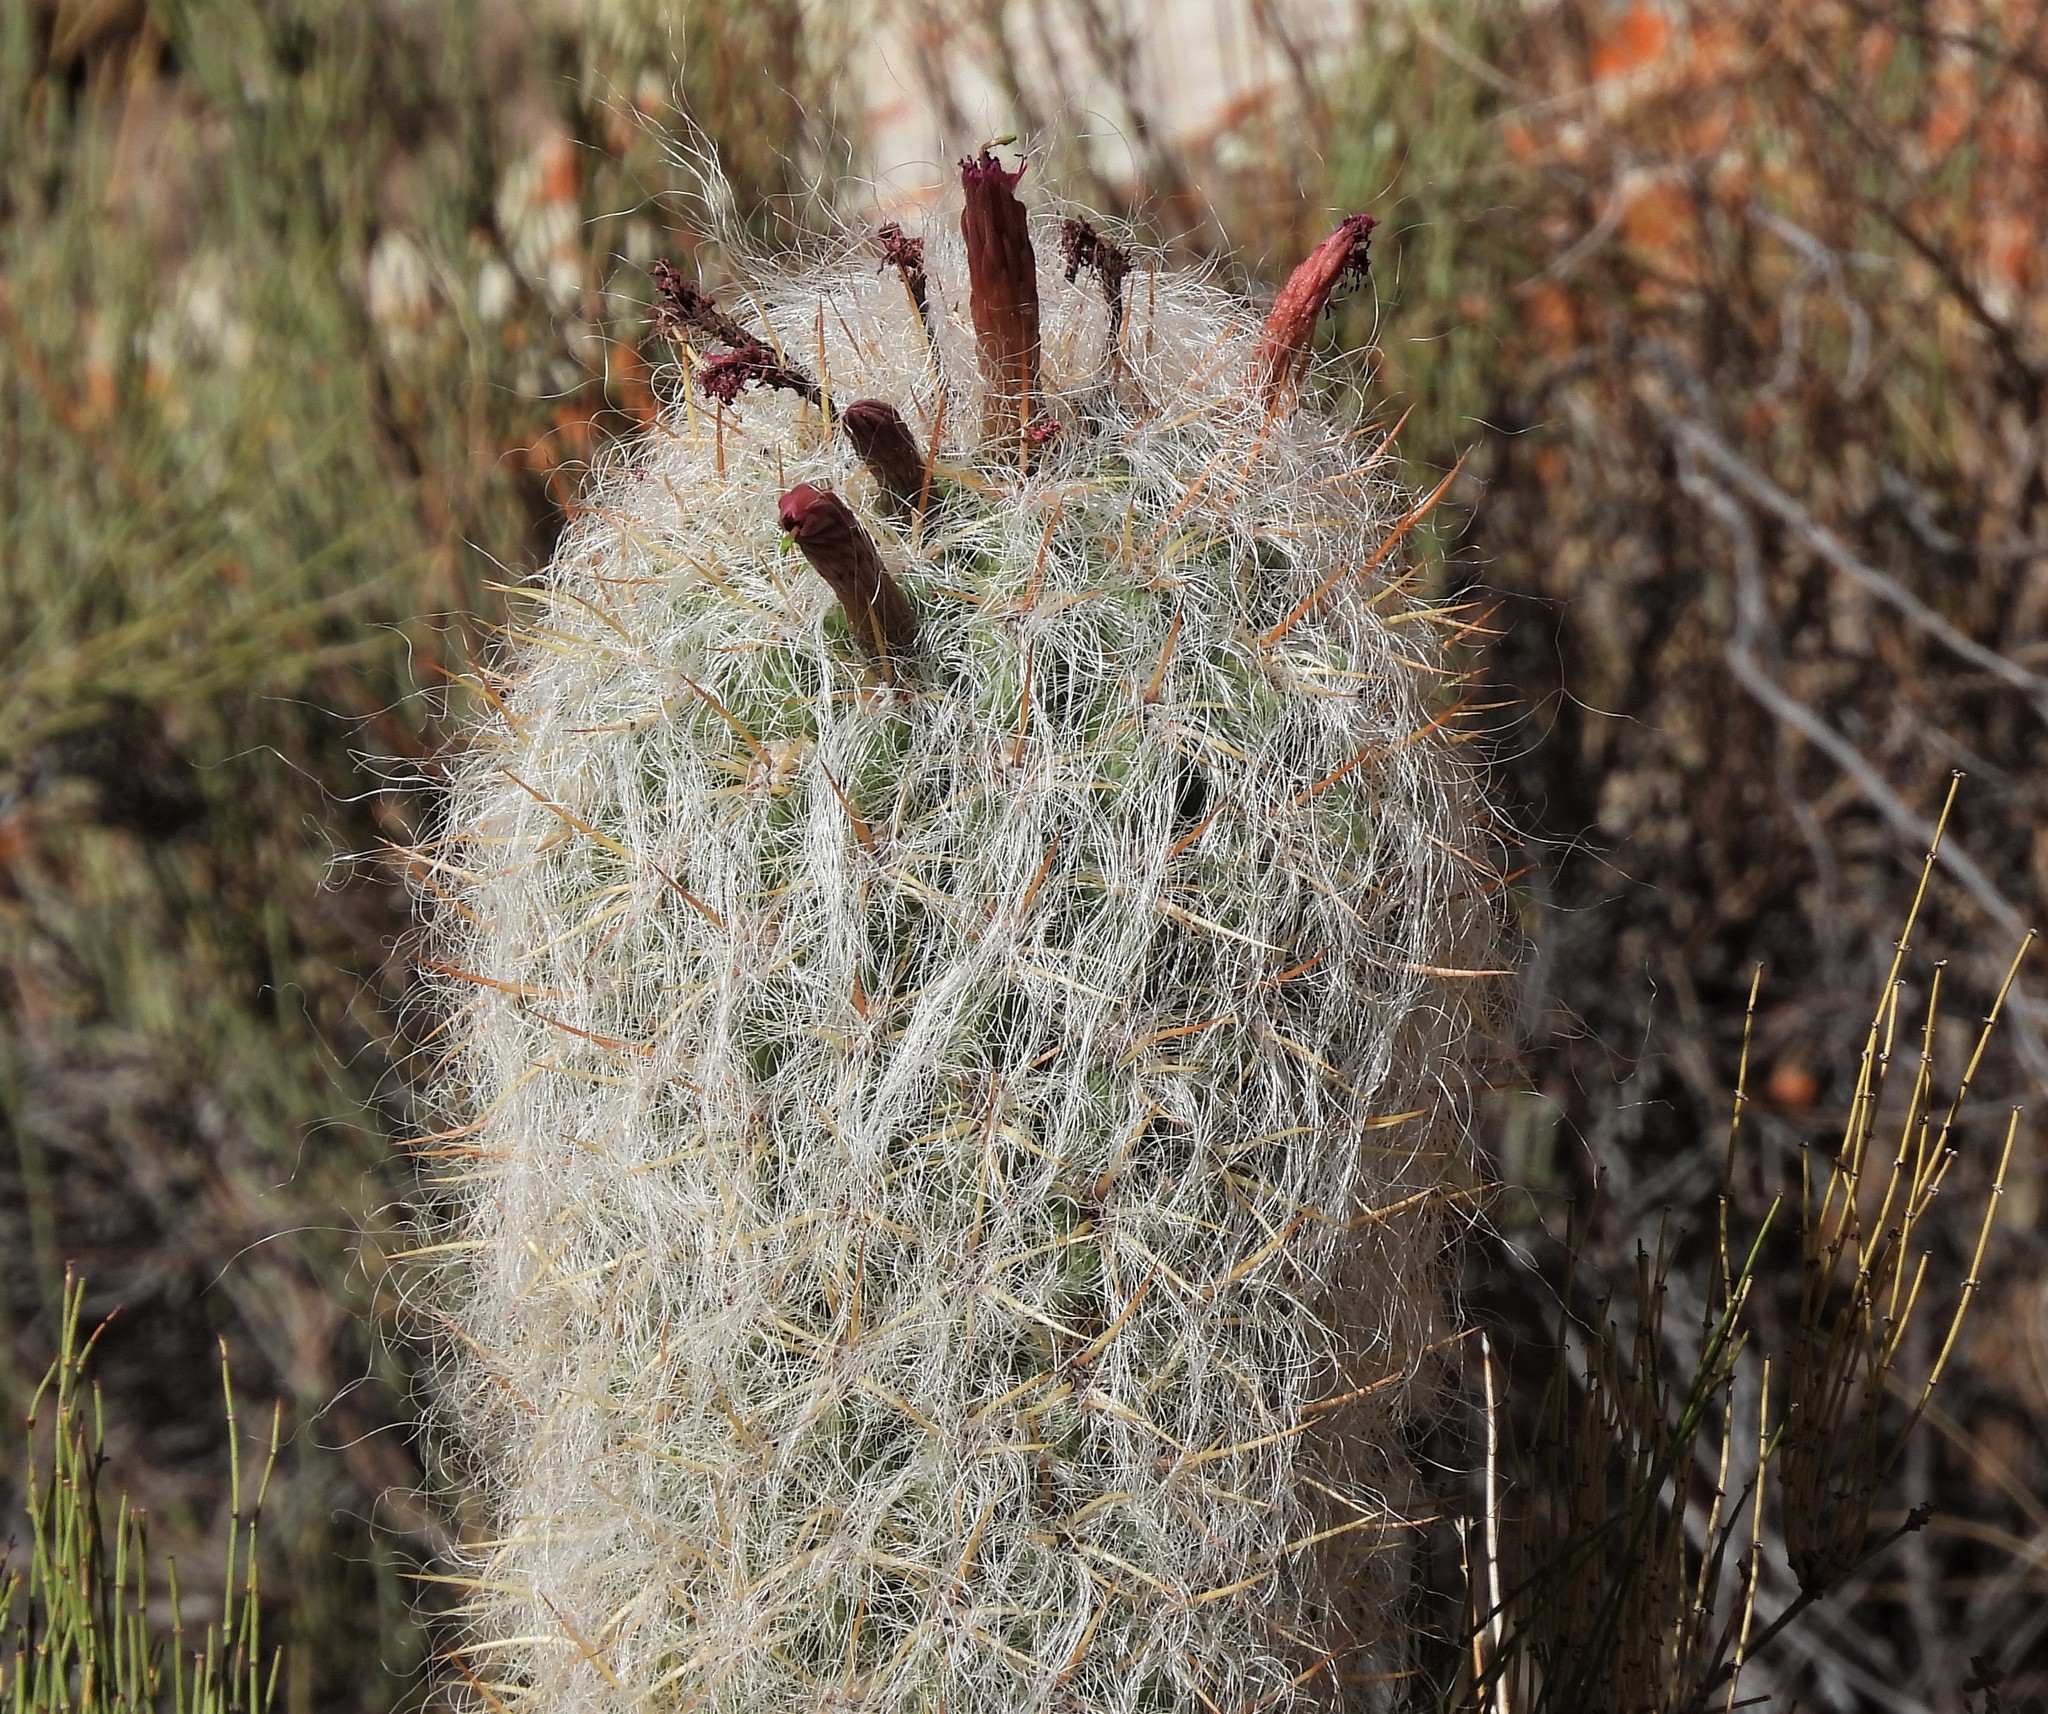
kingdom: Plantae
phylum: Tracheophyta
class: Magnoliopsida
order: Caryophyllales
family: Cactaceae
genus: Oreocereus
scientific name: Oreocereus celsianus
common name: Old-man-of-the-andes
